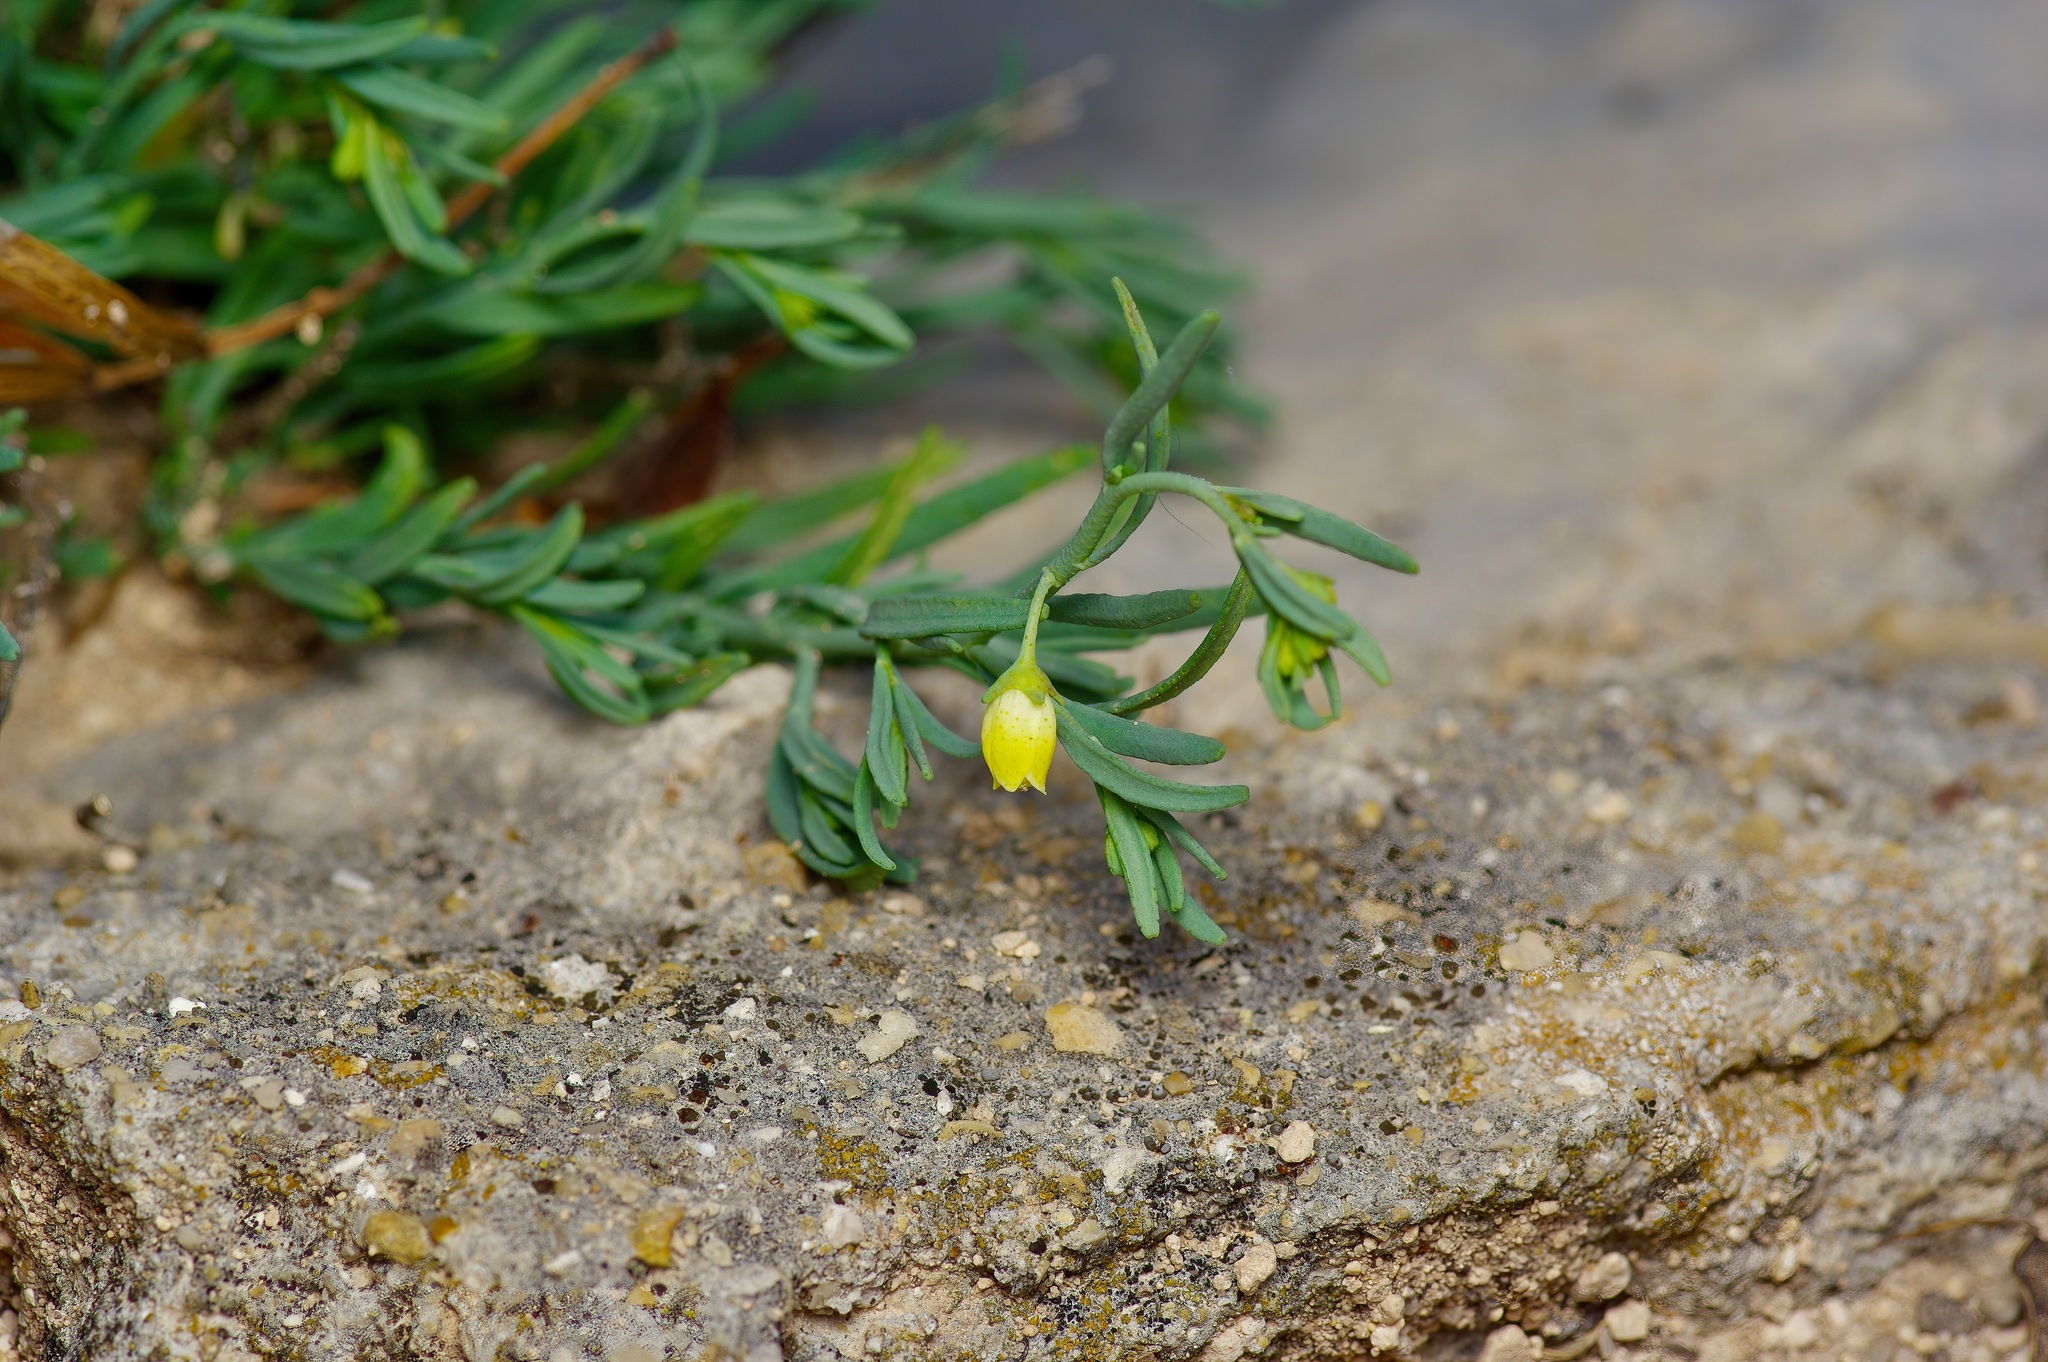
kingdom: Plantae
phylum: Tracheophyta
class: Magnoliopsida
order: Sapindales
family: Rutaceae
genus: Thamnosma
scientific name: Thamnosma texana
